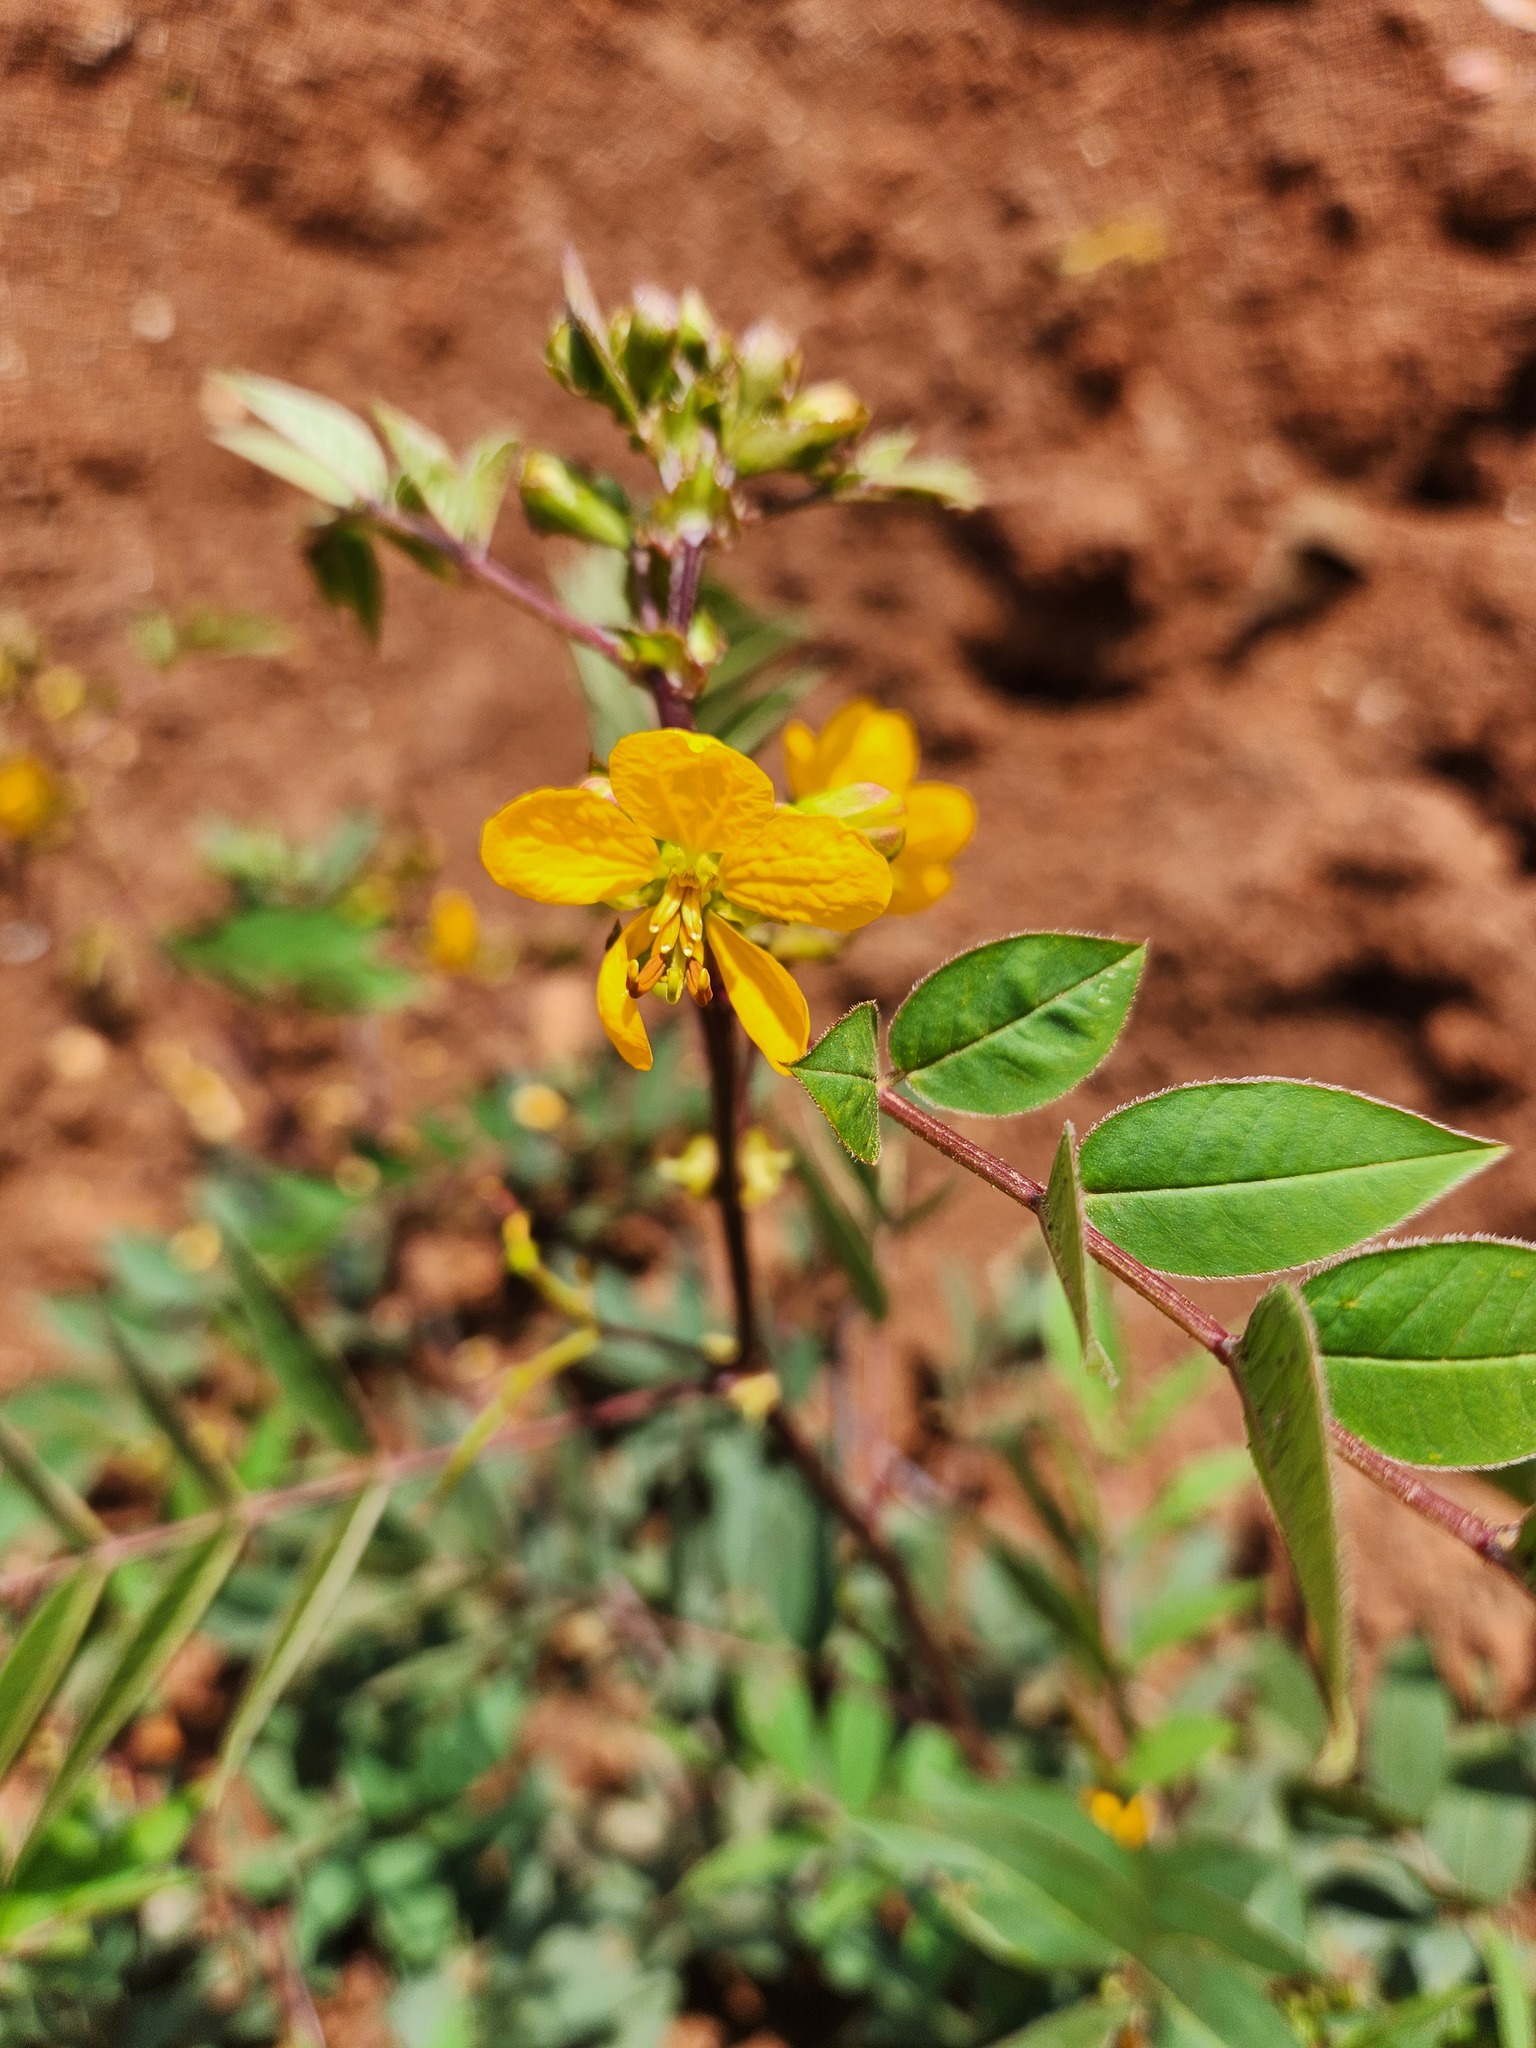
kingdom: Plantae
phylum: Tracheophyta
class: Magnoliopsida
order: Fabales
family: Fabaceae
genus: Senna
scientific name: Senna occidentalis
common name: Septicweed
